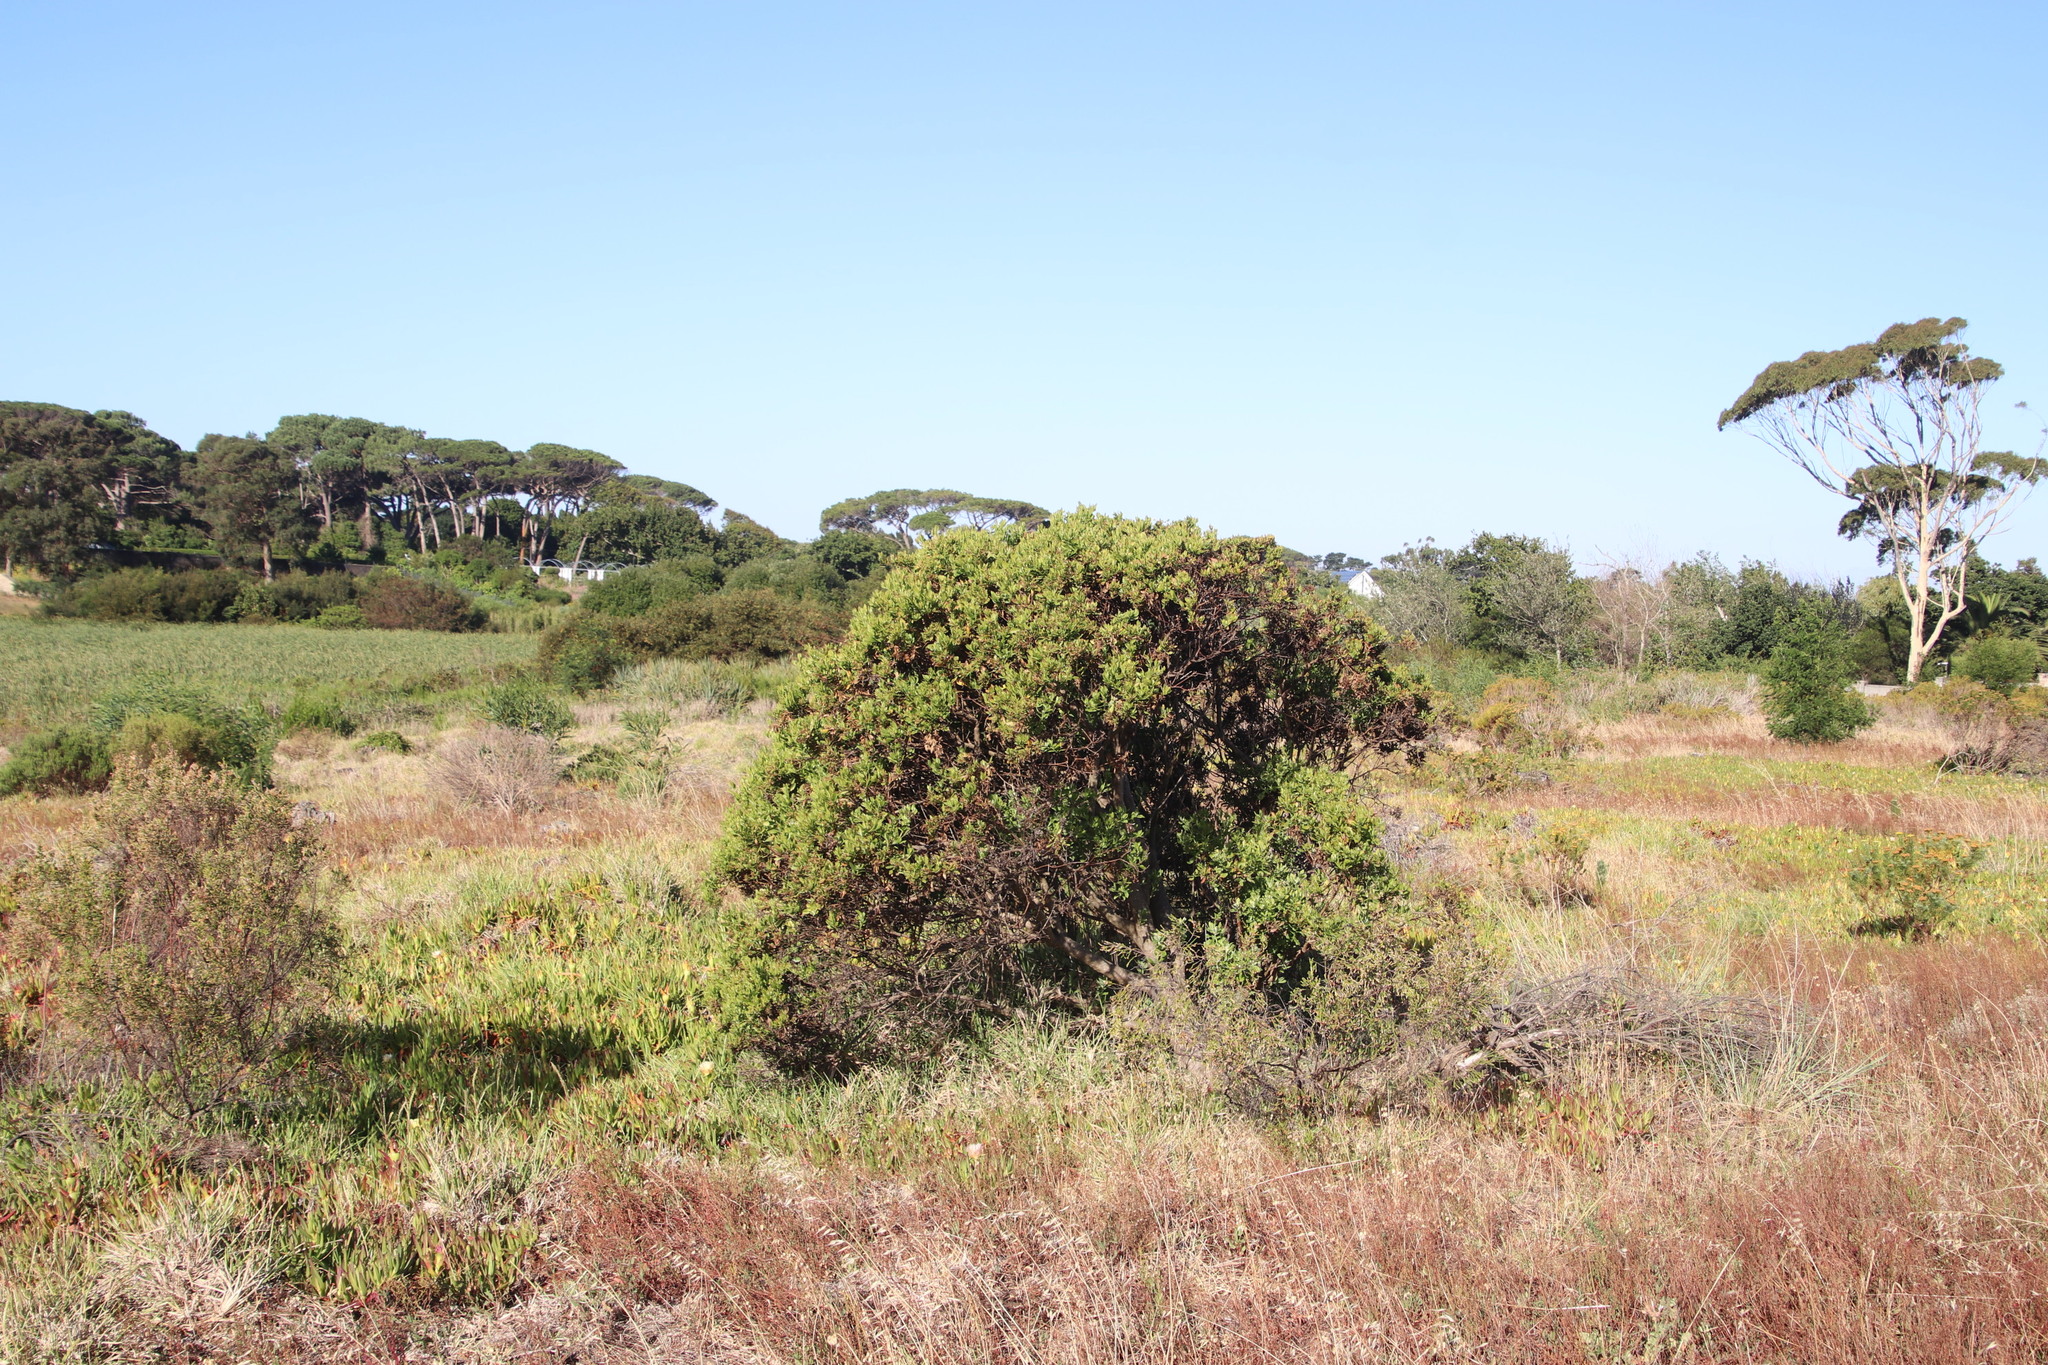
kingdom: Plantae
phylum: Tracheophyta
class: Magnoliopsida
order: Asterales
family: Asteraceae
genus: Osteospermum
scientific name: Osteospermum moniliferum
